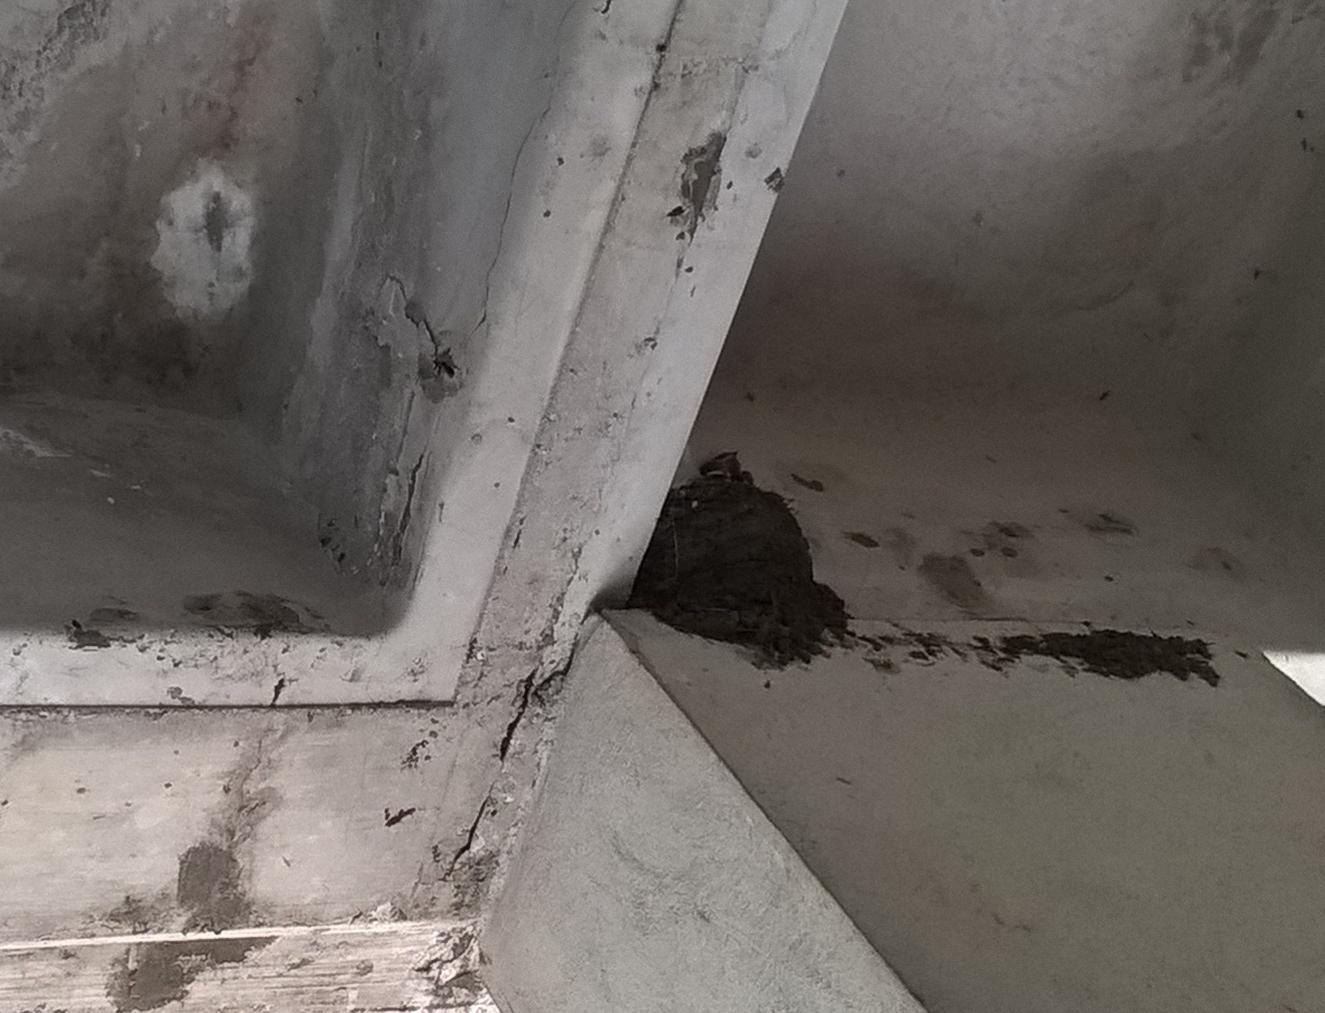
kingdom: Animalia
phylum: Chordata
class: Aves
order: Passeriformes
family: Hirundinidae
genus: Hirundo
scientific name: Hirundo rustica
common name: Barn swallow
